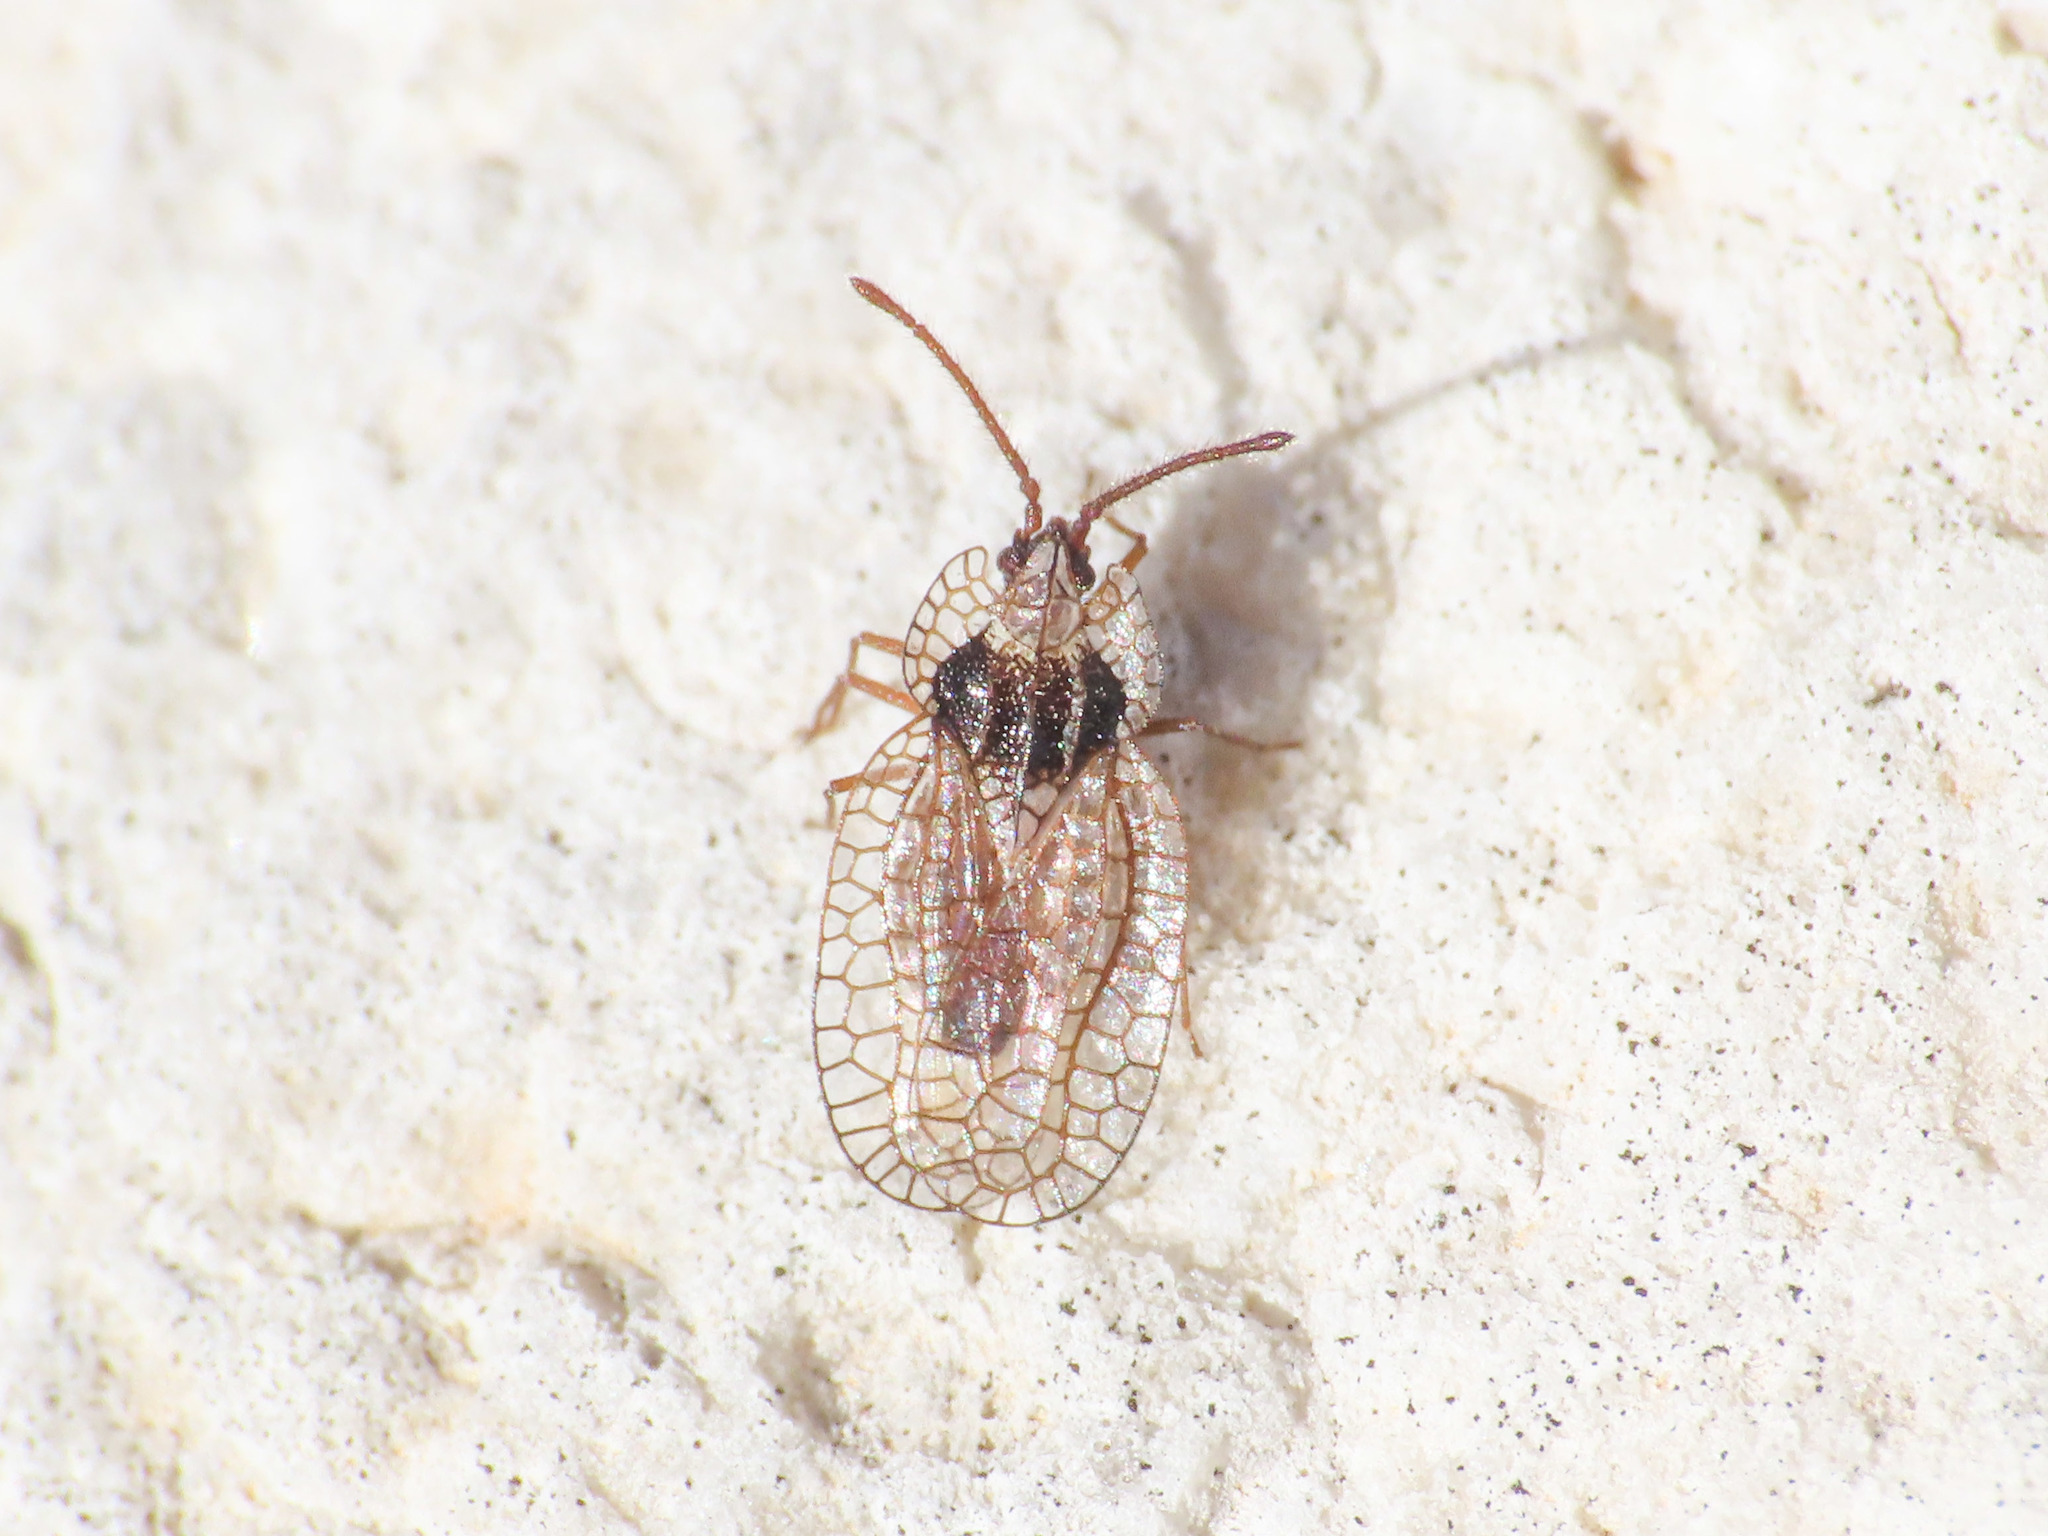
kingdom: Animalia
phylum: Arthropoda
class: Insecta
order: Hemiptera
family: Tingidae
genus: Derephysia
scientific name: Derephysia foliacea
